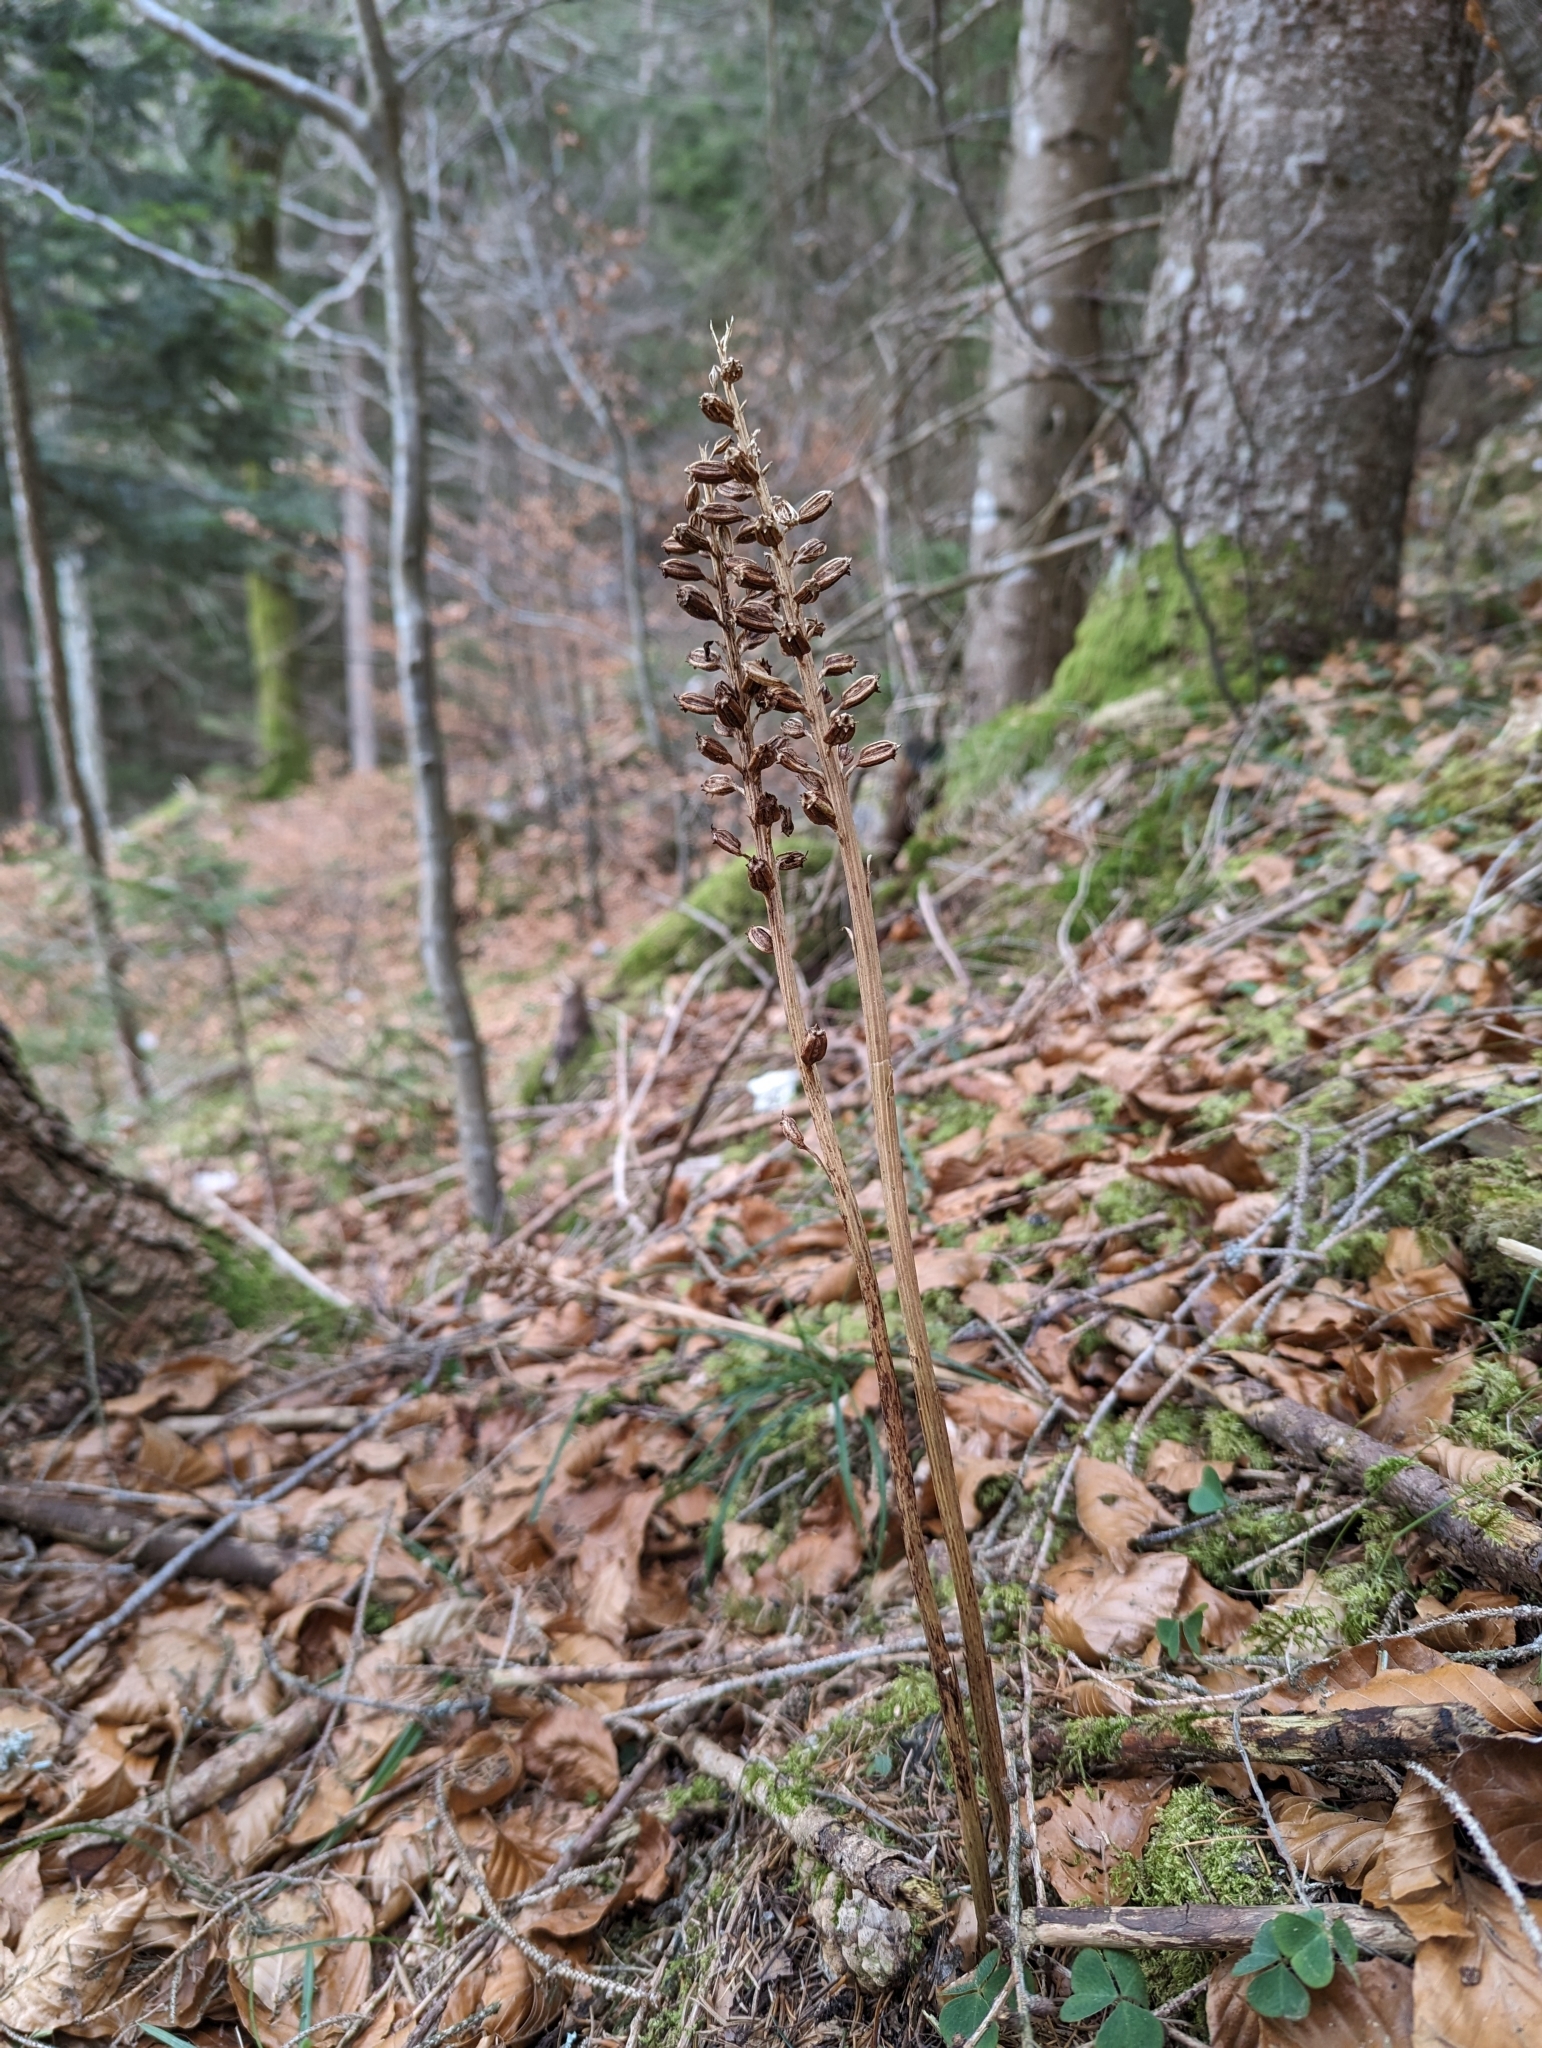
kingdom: Plantae
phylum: Tracheophyta
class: Liliopsida
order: Asparagales
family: Orchidaceae
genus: Neottia
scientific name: Neottia nidus-avis
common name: Bird's-nest orchid
